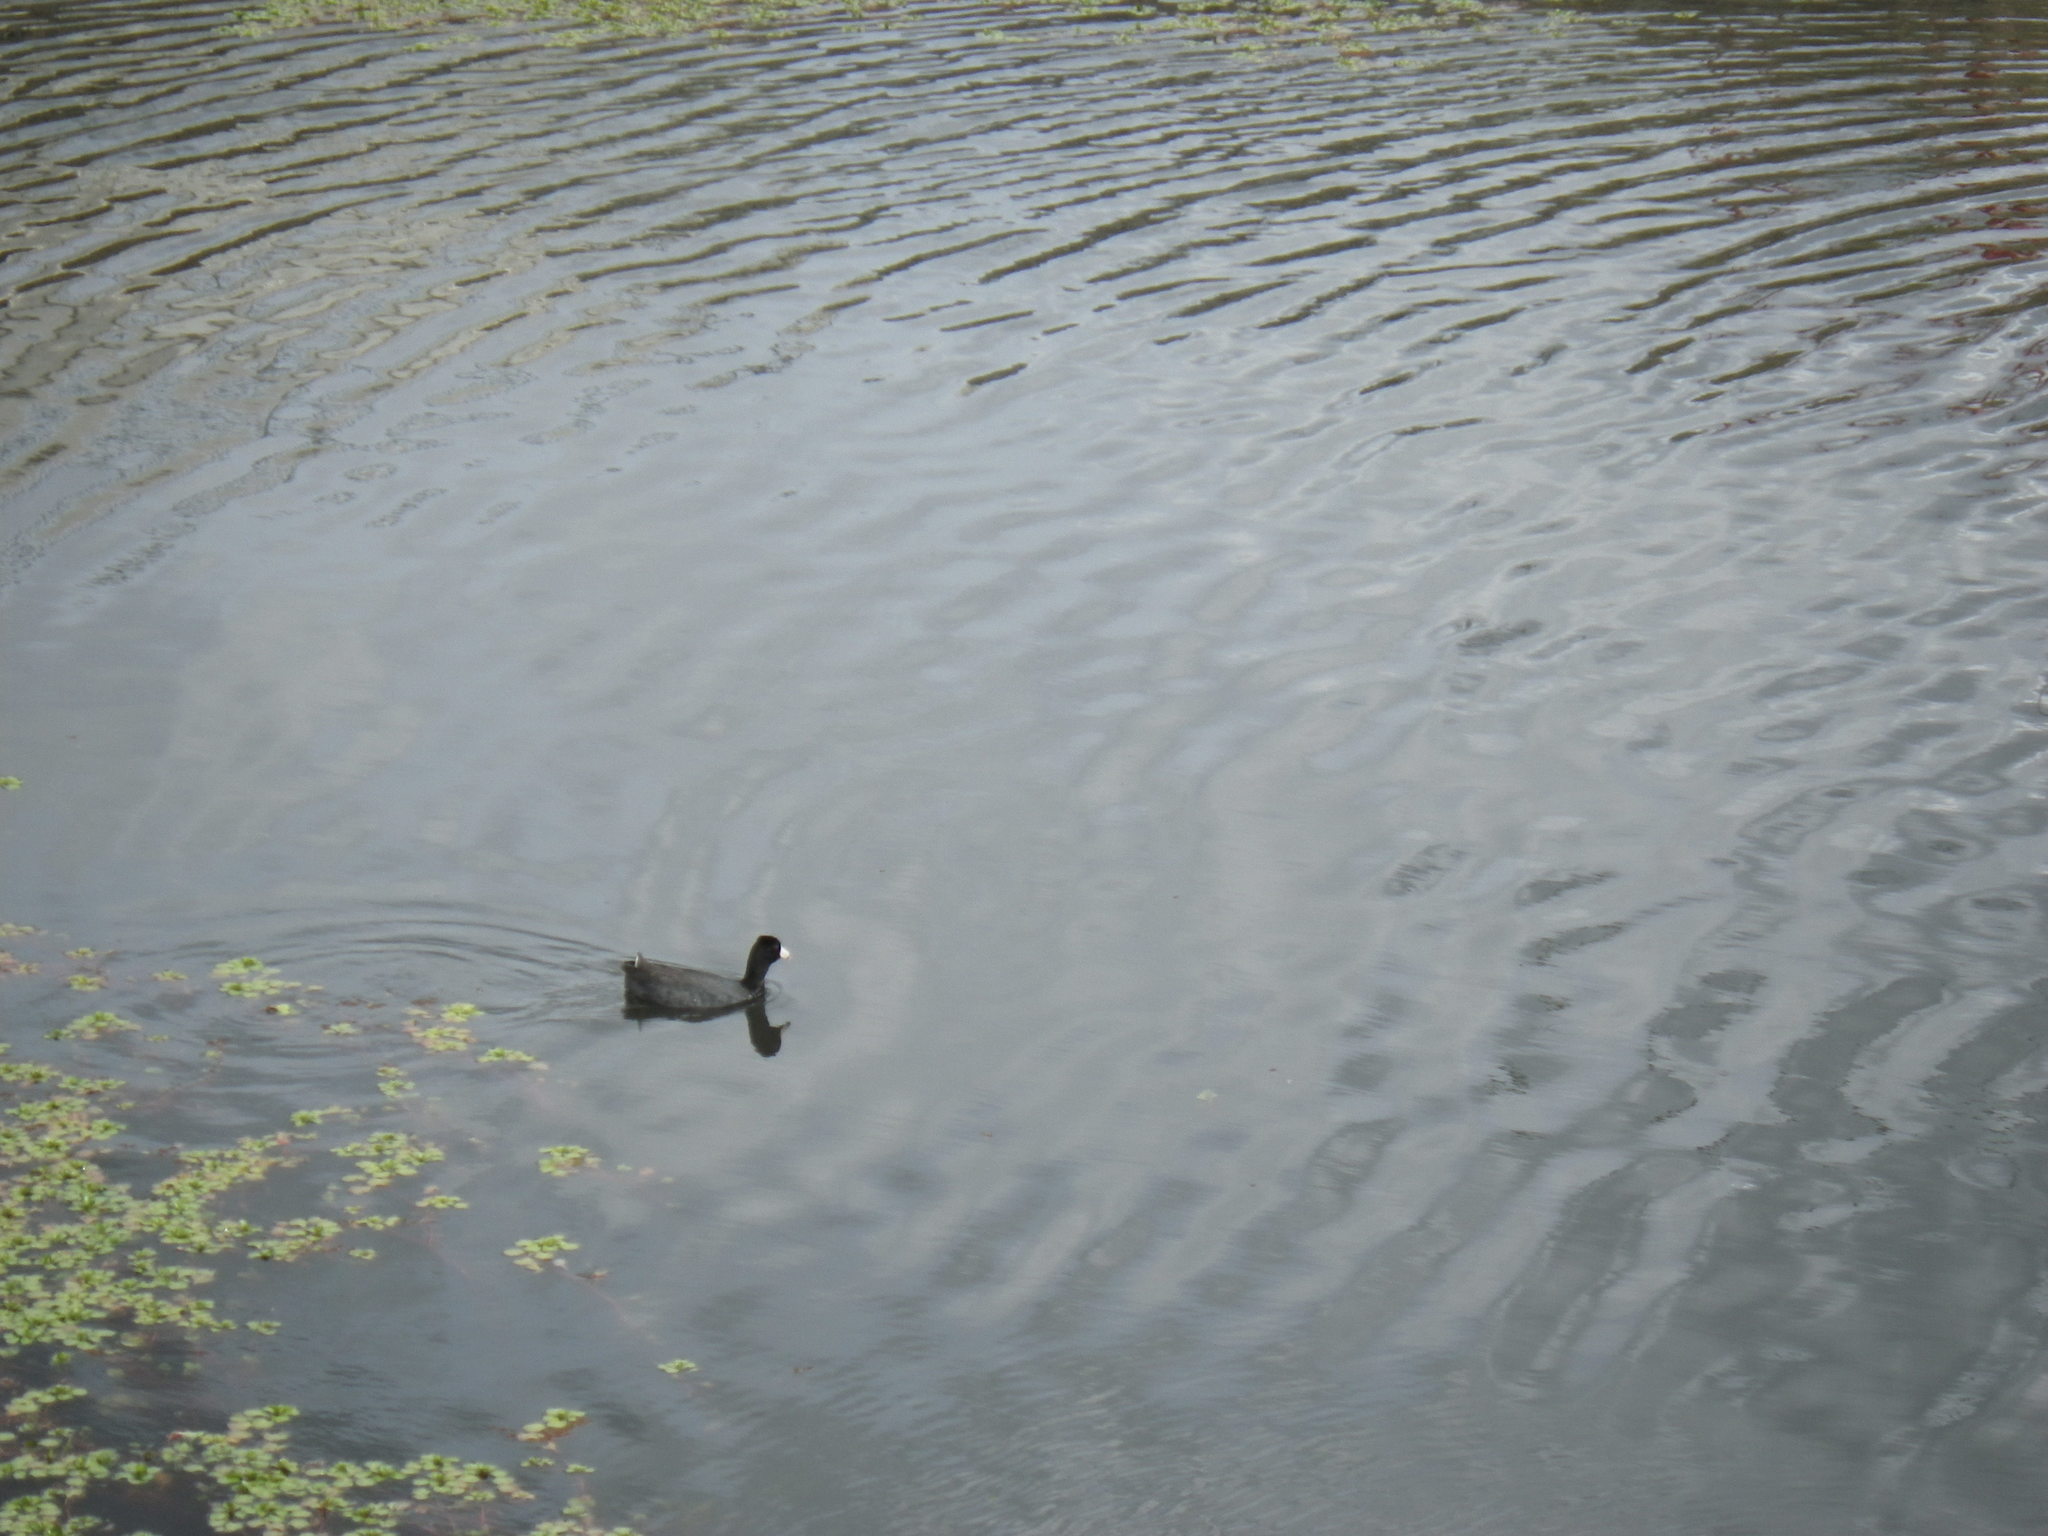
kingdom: Animalia
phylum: Chordata
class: Aves
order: Gruiformes
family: Rallidae
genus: Fulica
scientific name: Fulica americana
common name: American coot
